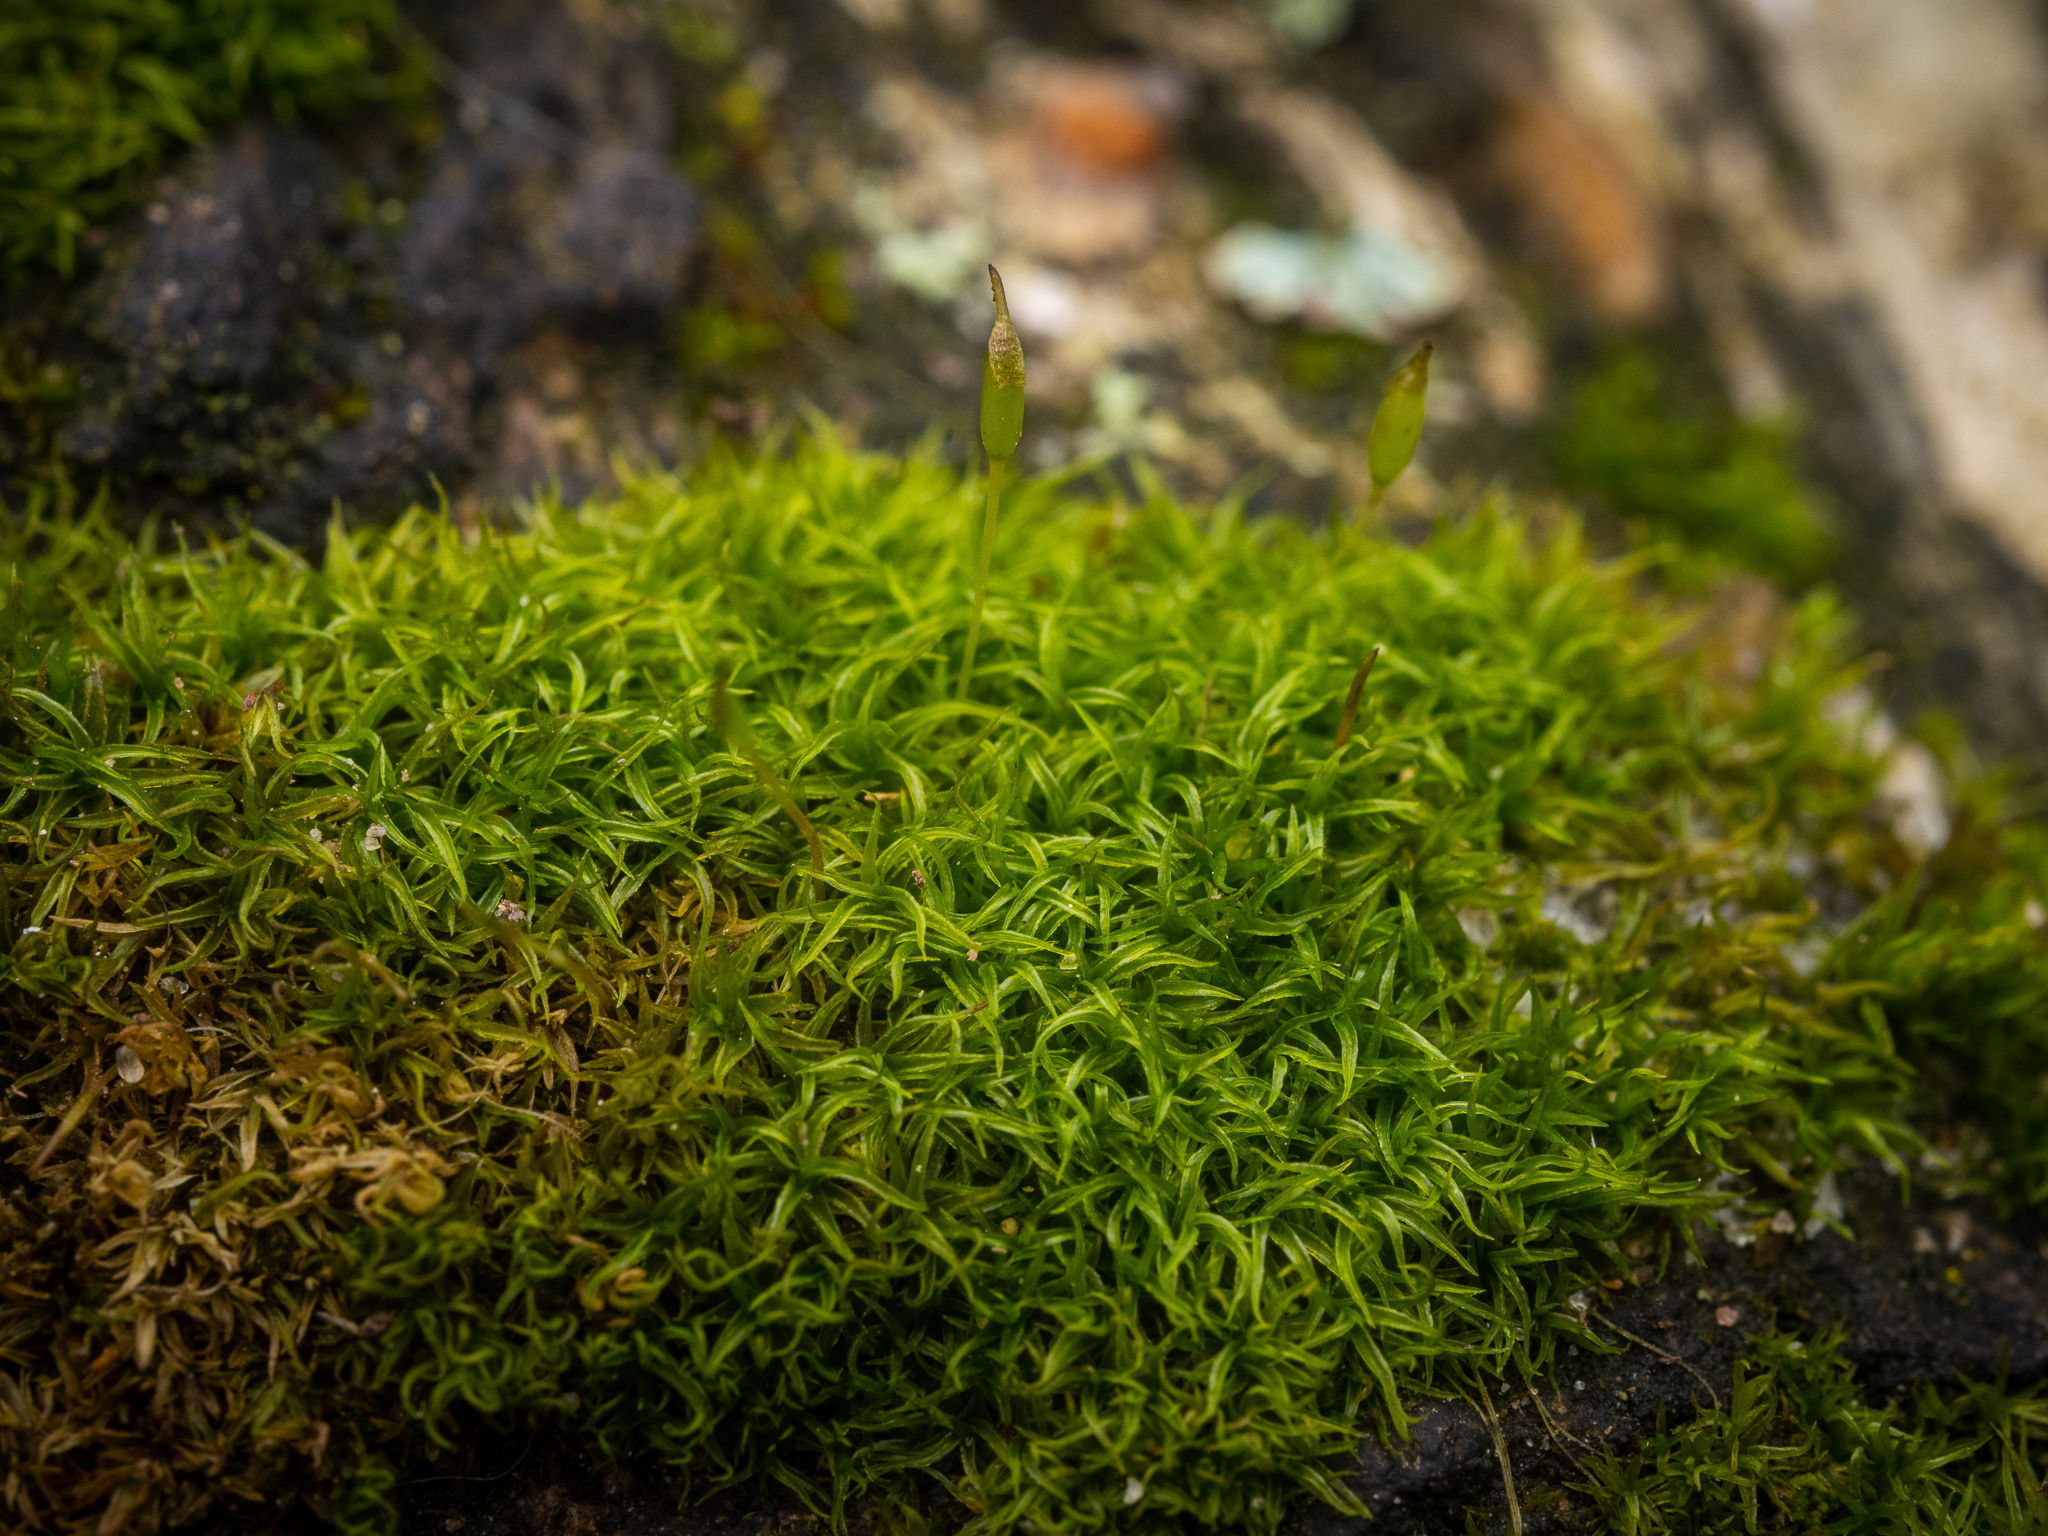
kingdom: Plantae
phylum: Bryophyta
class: Bryopsida
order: Dicranales
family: Rhabdoweisiaceae
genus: Dicranoweisia
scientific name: Dicranoweisia cirrata
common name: Common pincushion
